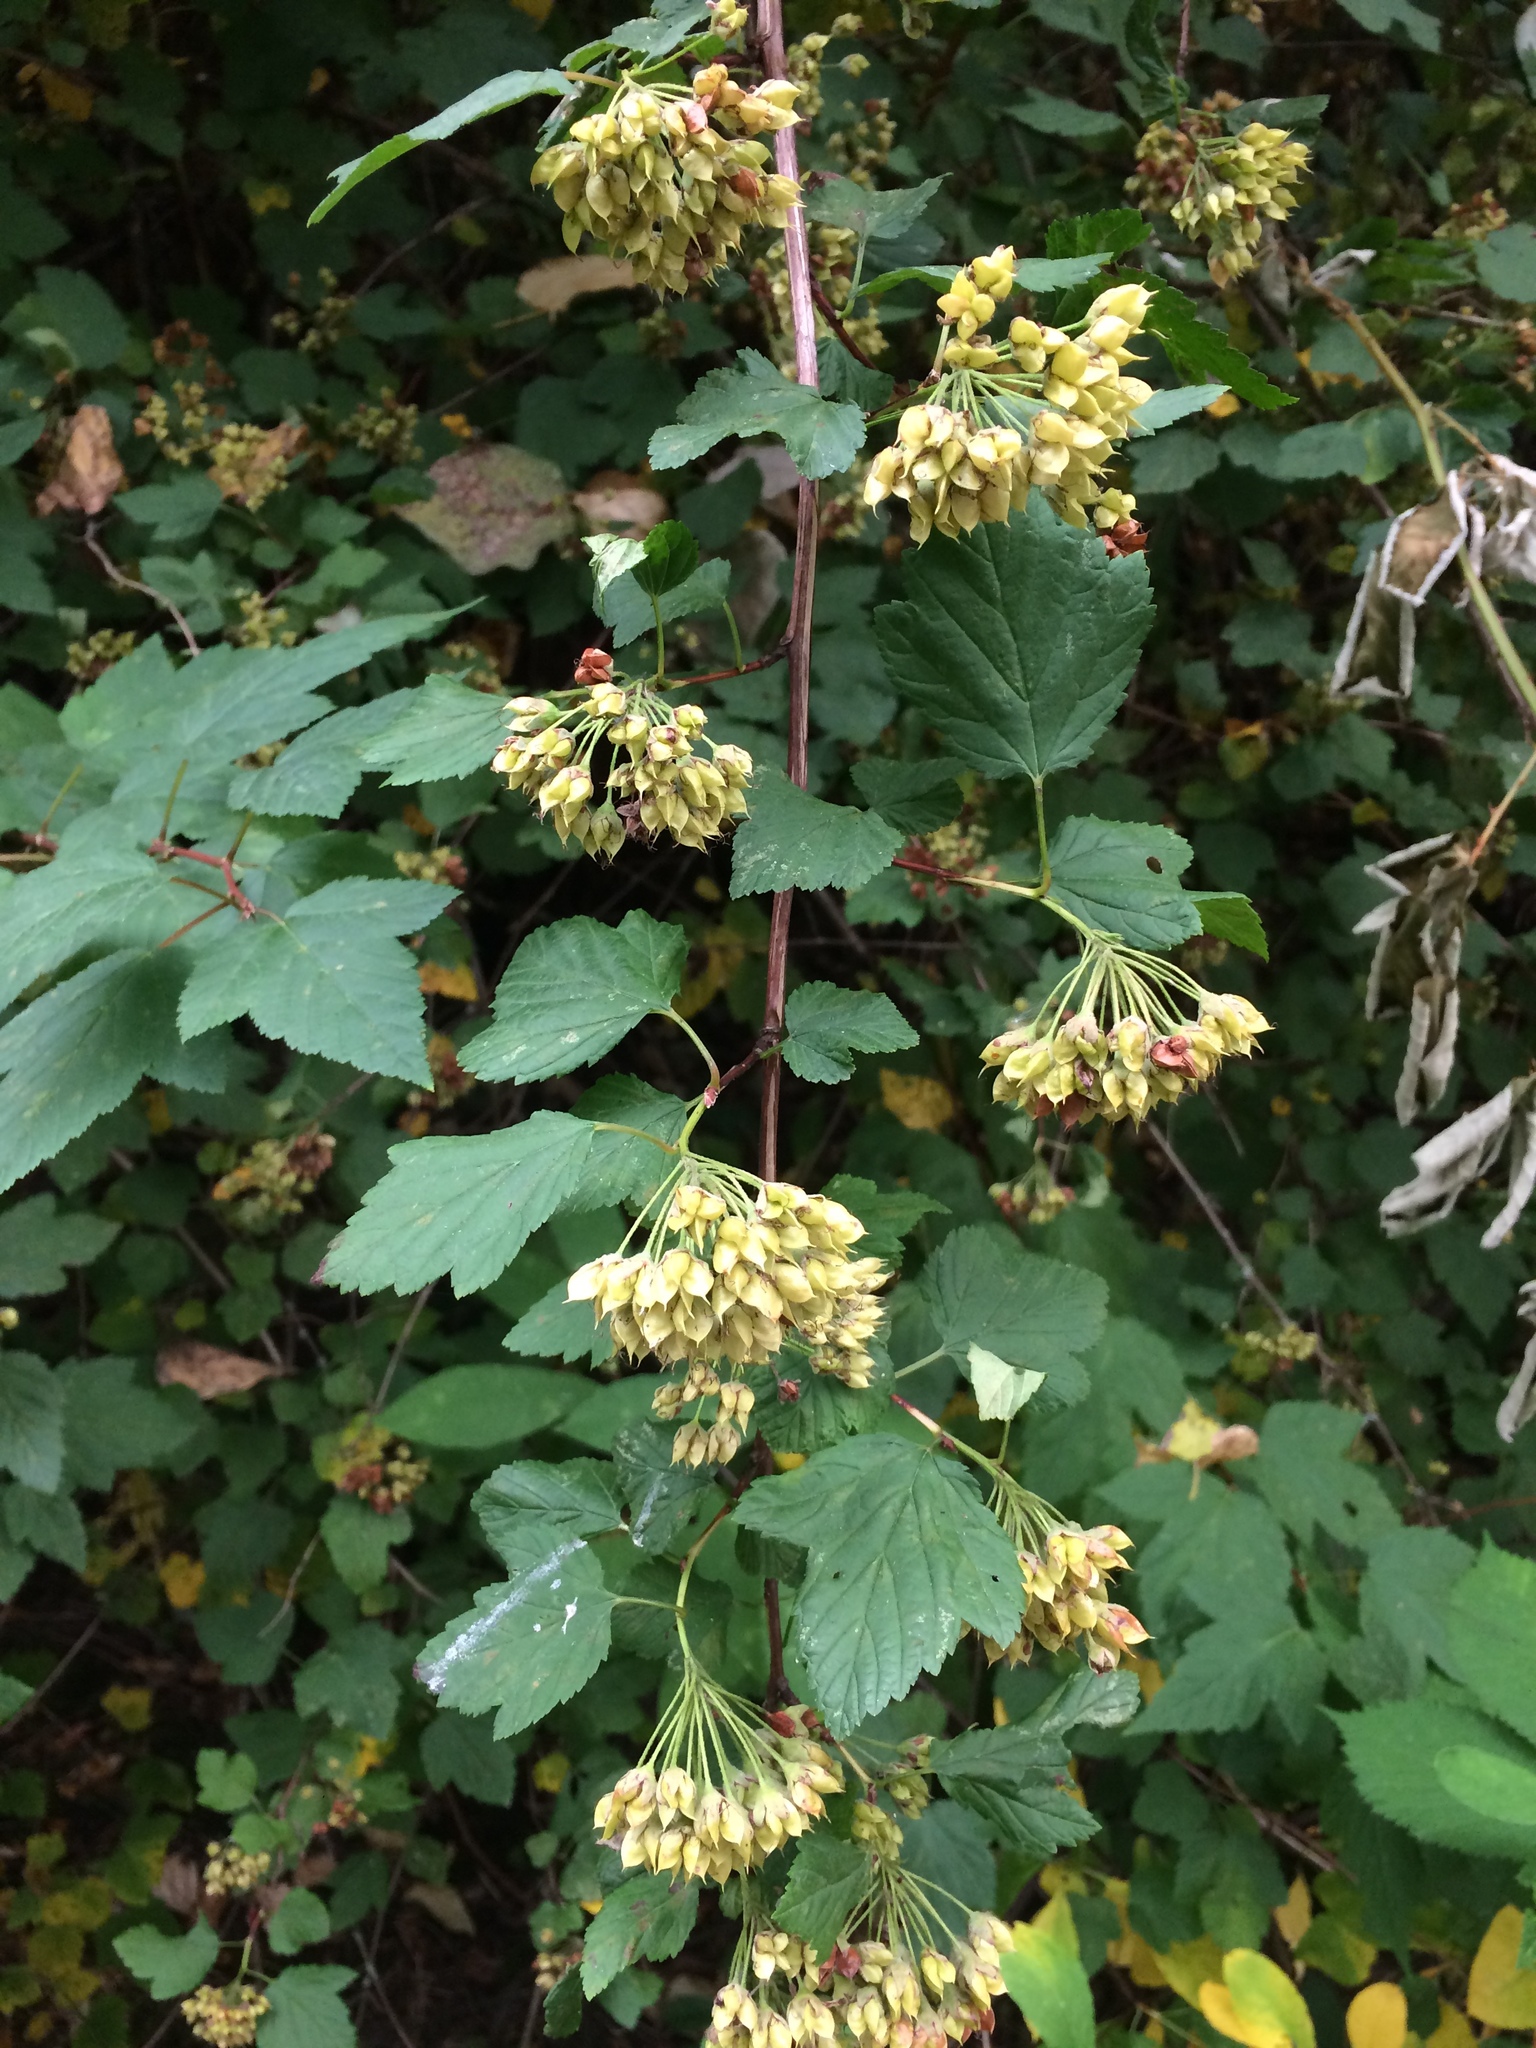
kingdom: Plantae
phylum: Tracheophyta
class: Magnoliopsida
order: Rosales
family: Rosaceae
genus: Physocarpus
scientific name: Physocarpus capitatus
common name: Pacific ninebark
